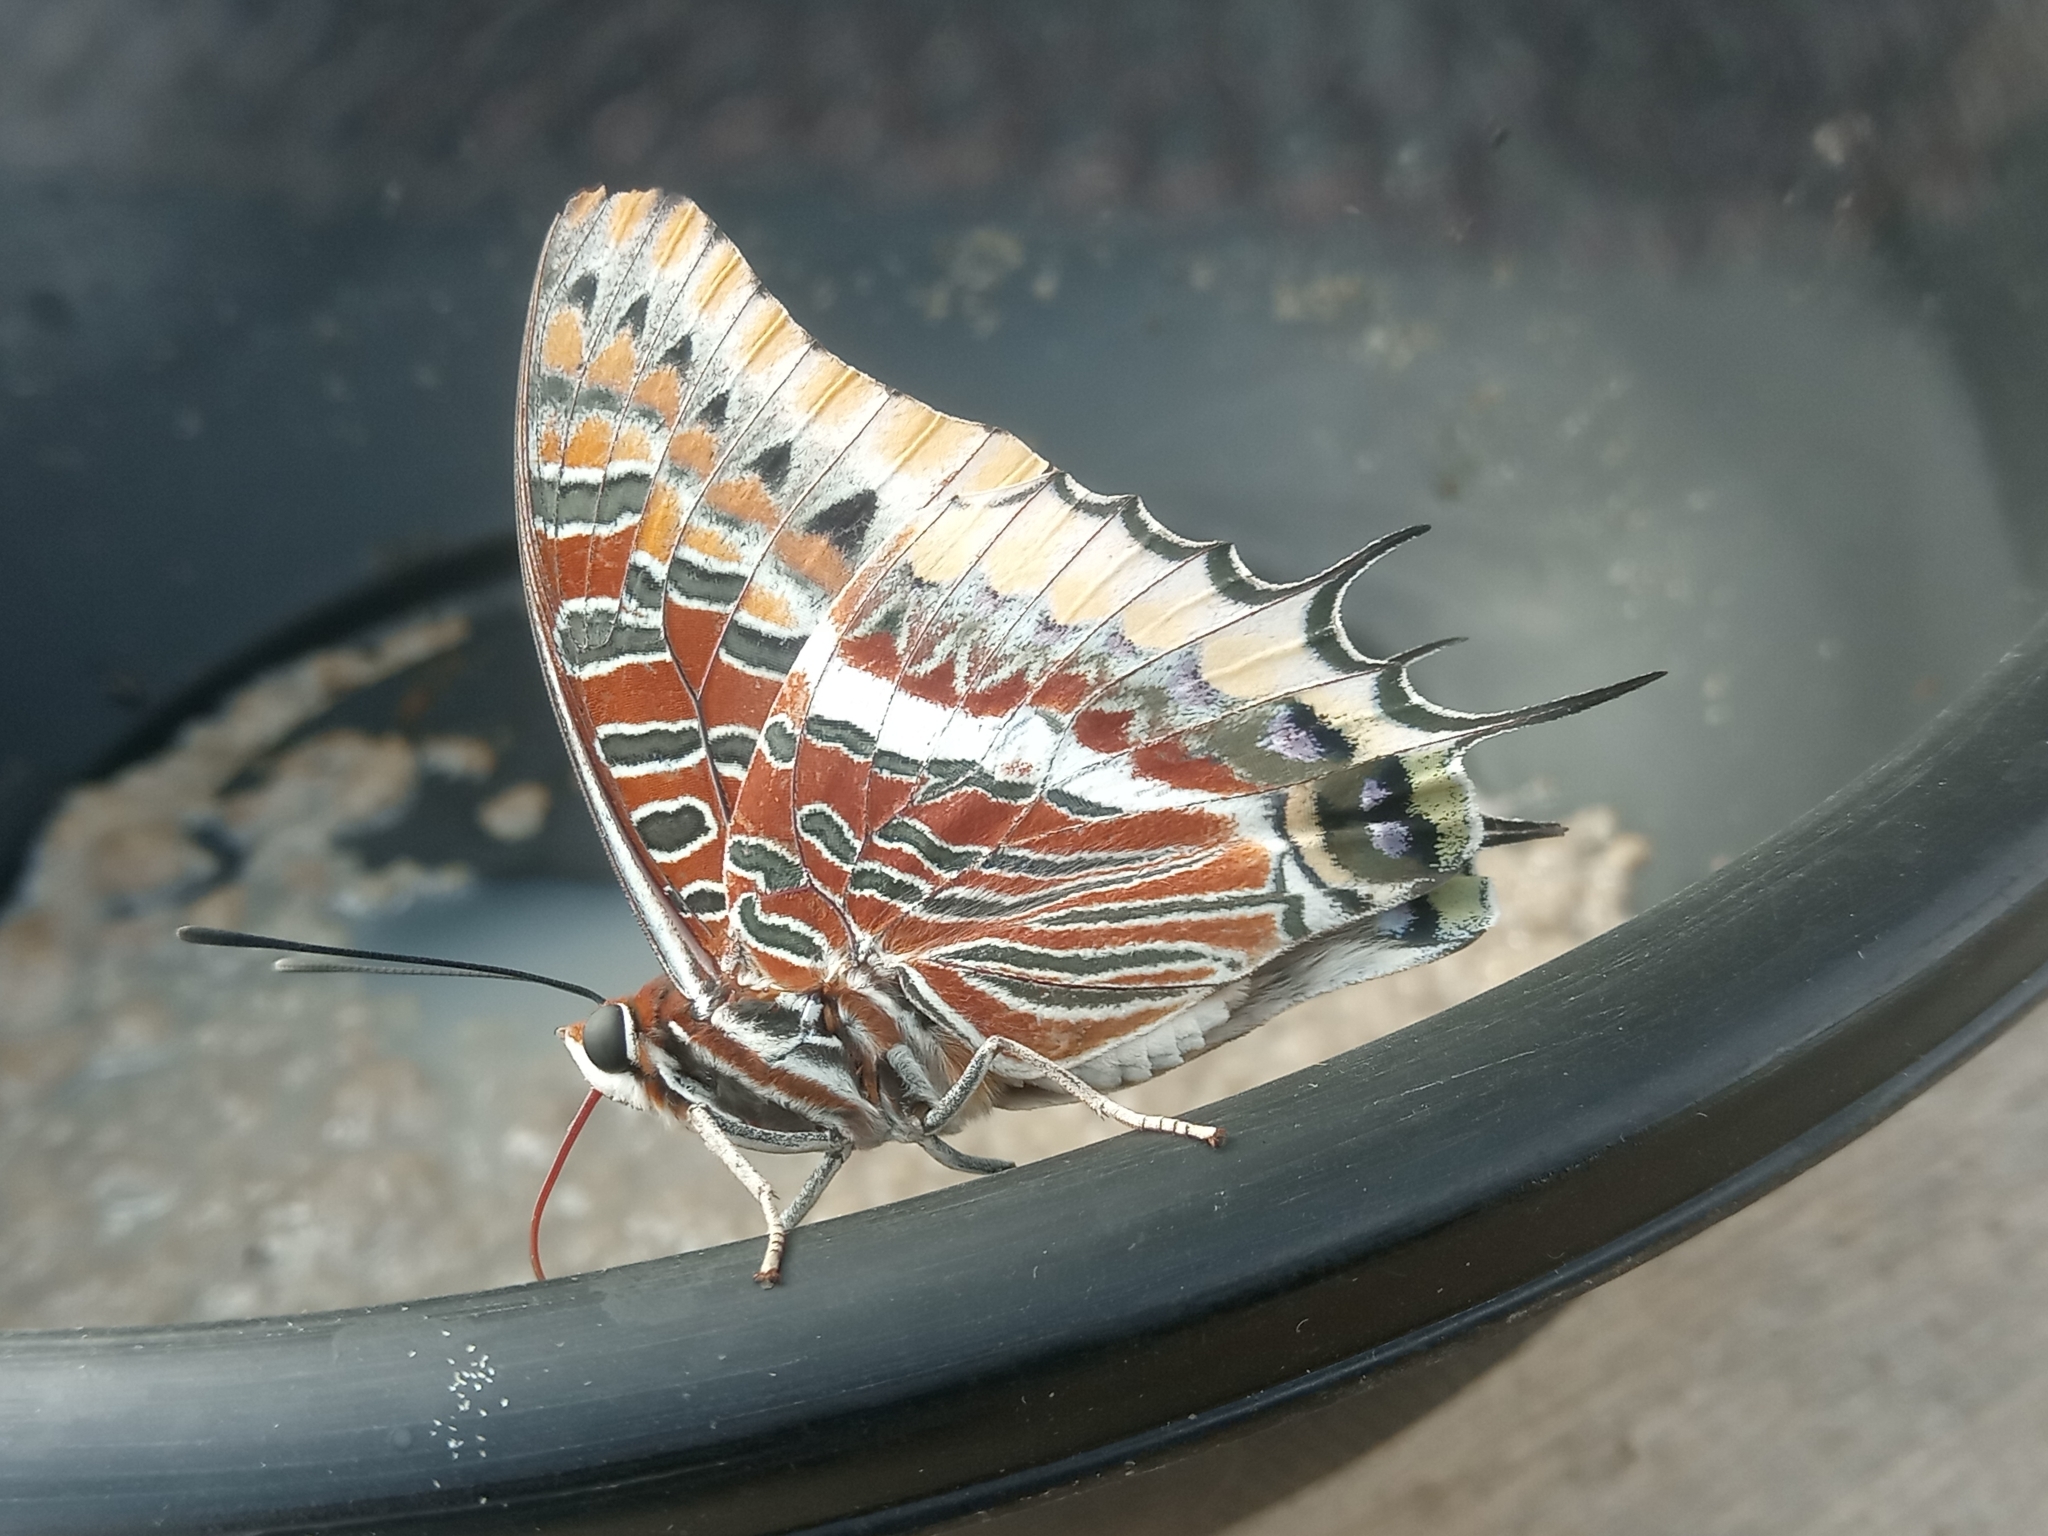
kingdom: Animalia
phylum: Arthropoda
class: Insecta
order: Lepidoptera
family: Nymphalidae
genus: Charaxes
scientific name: Charaxes jasius
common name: Two tailed pasha
